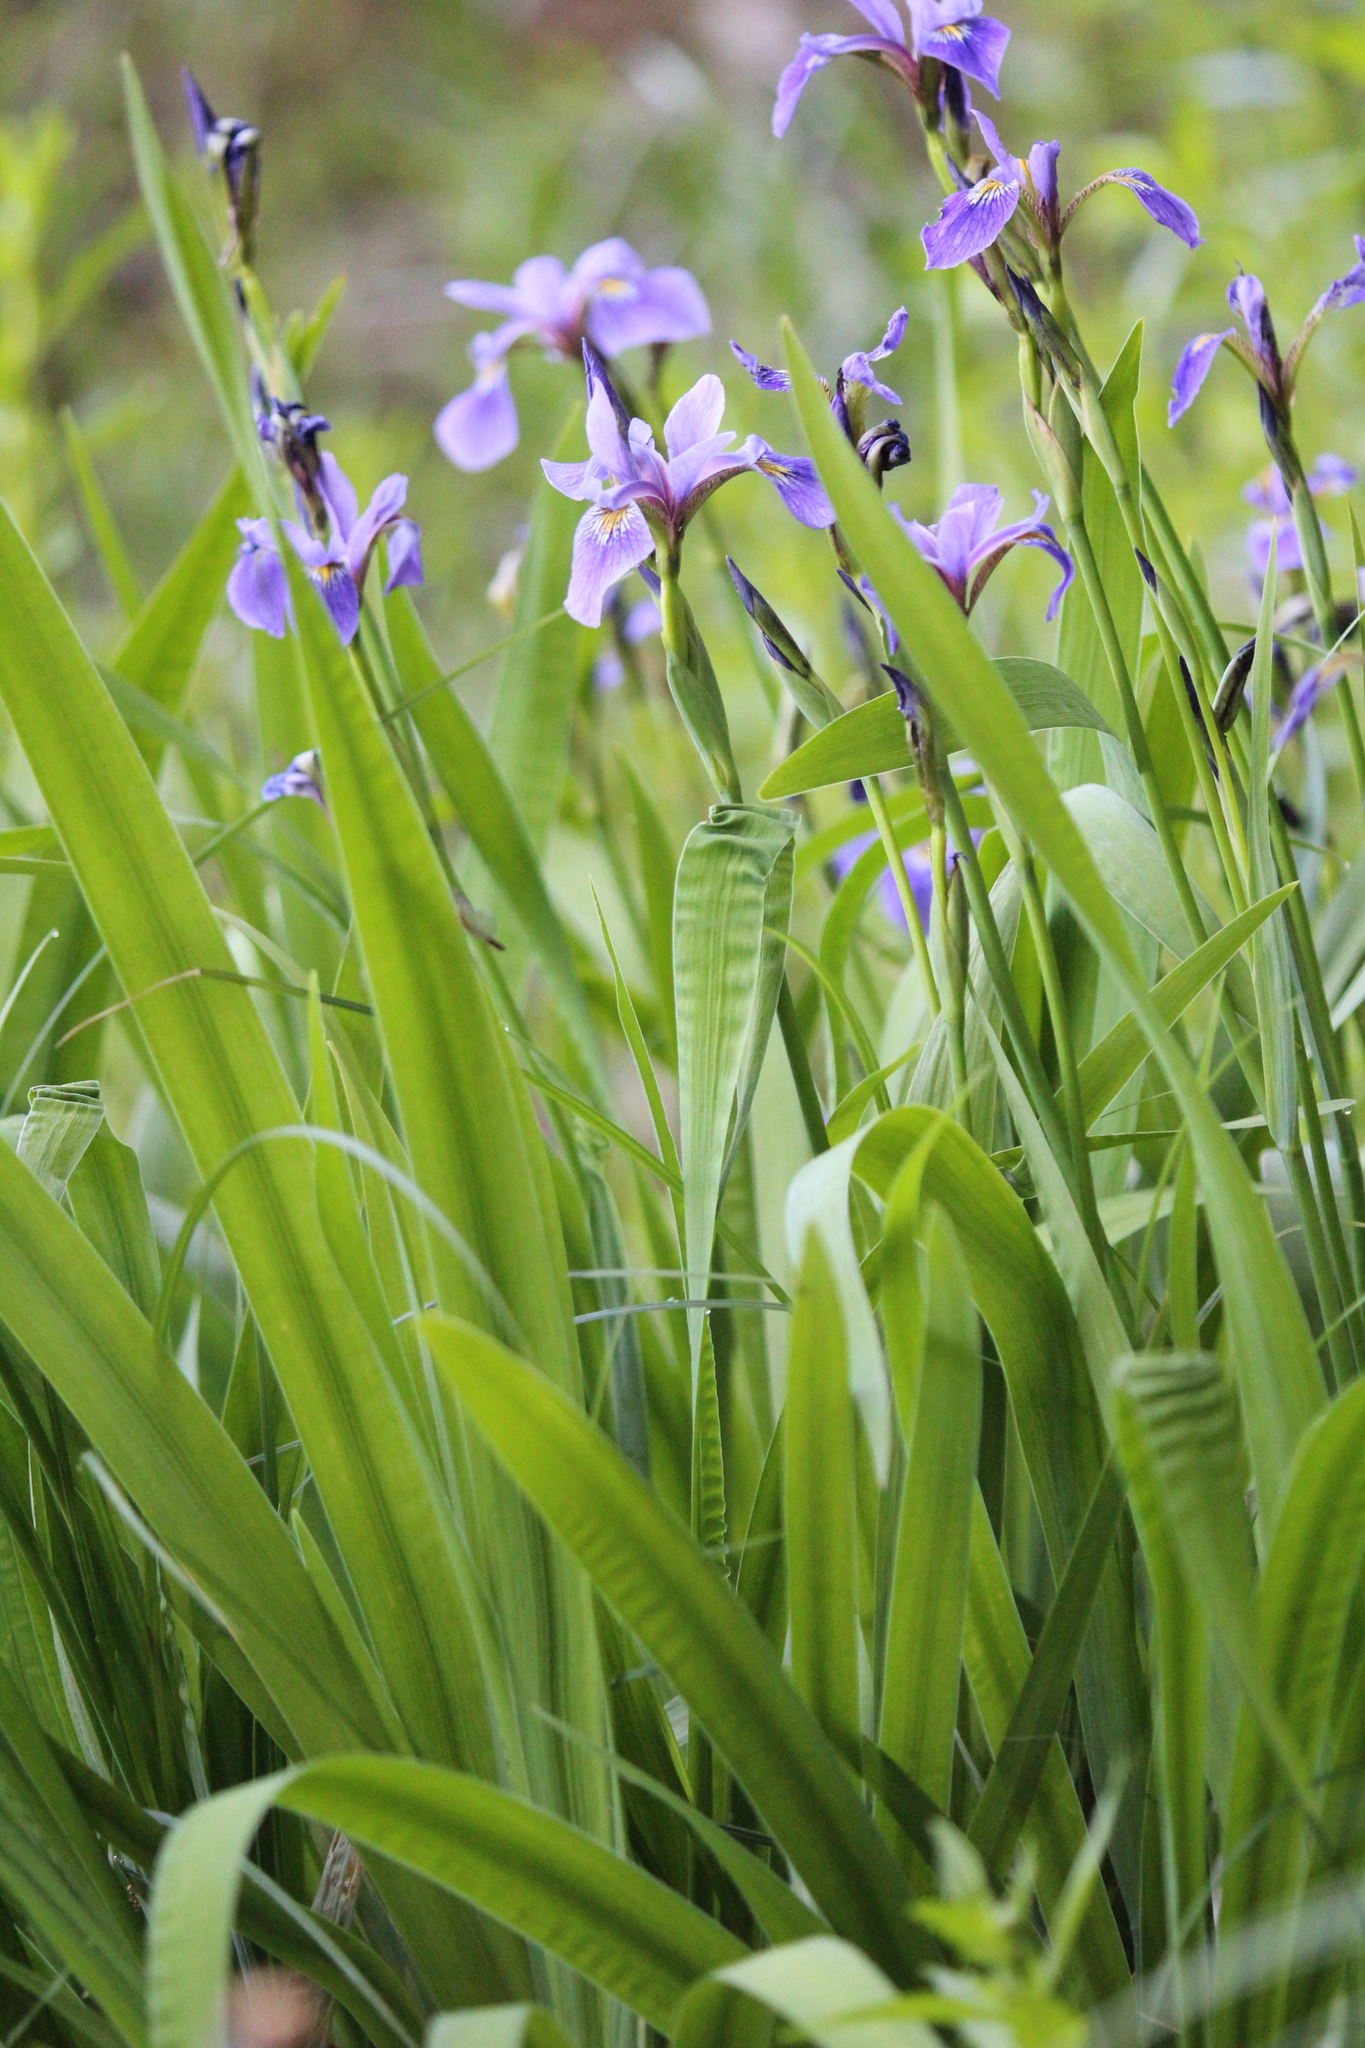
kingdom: Plantae
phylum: Tracheophyta
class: Liliopsida
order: Asparagales
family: Iridaceae
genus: Iris
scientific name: Iris versicolor
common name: Purple iris
